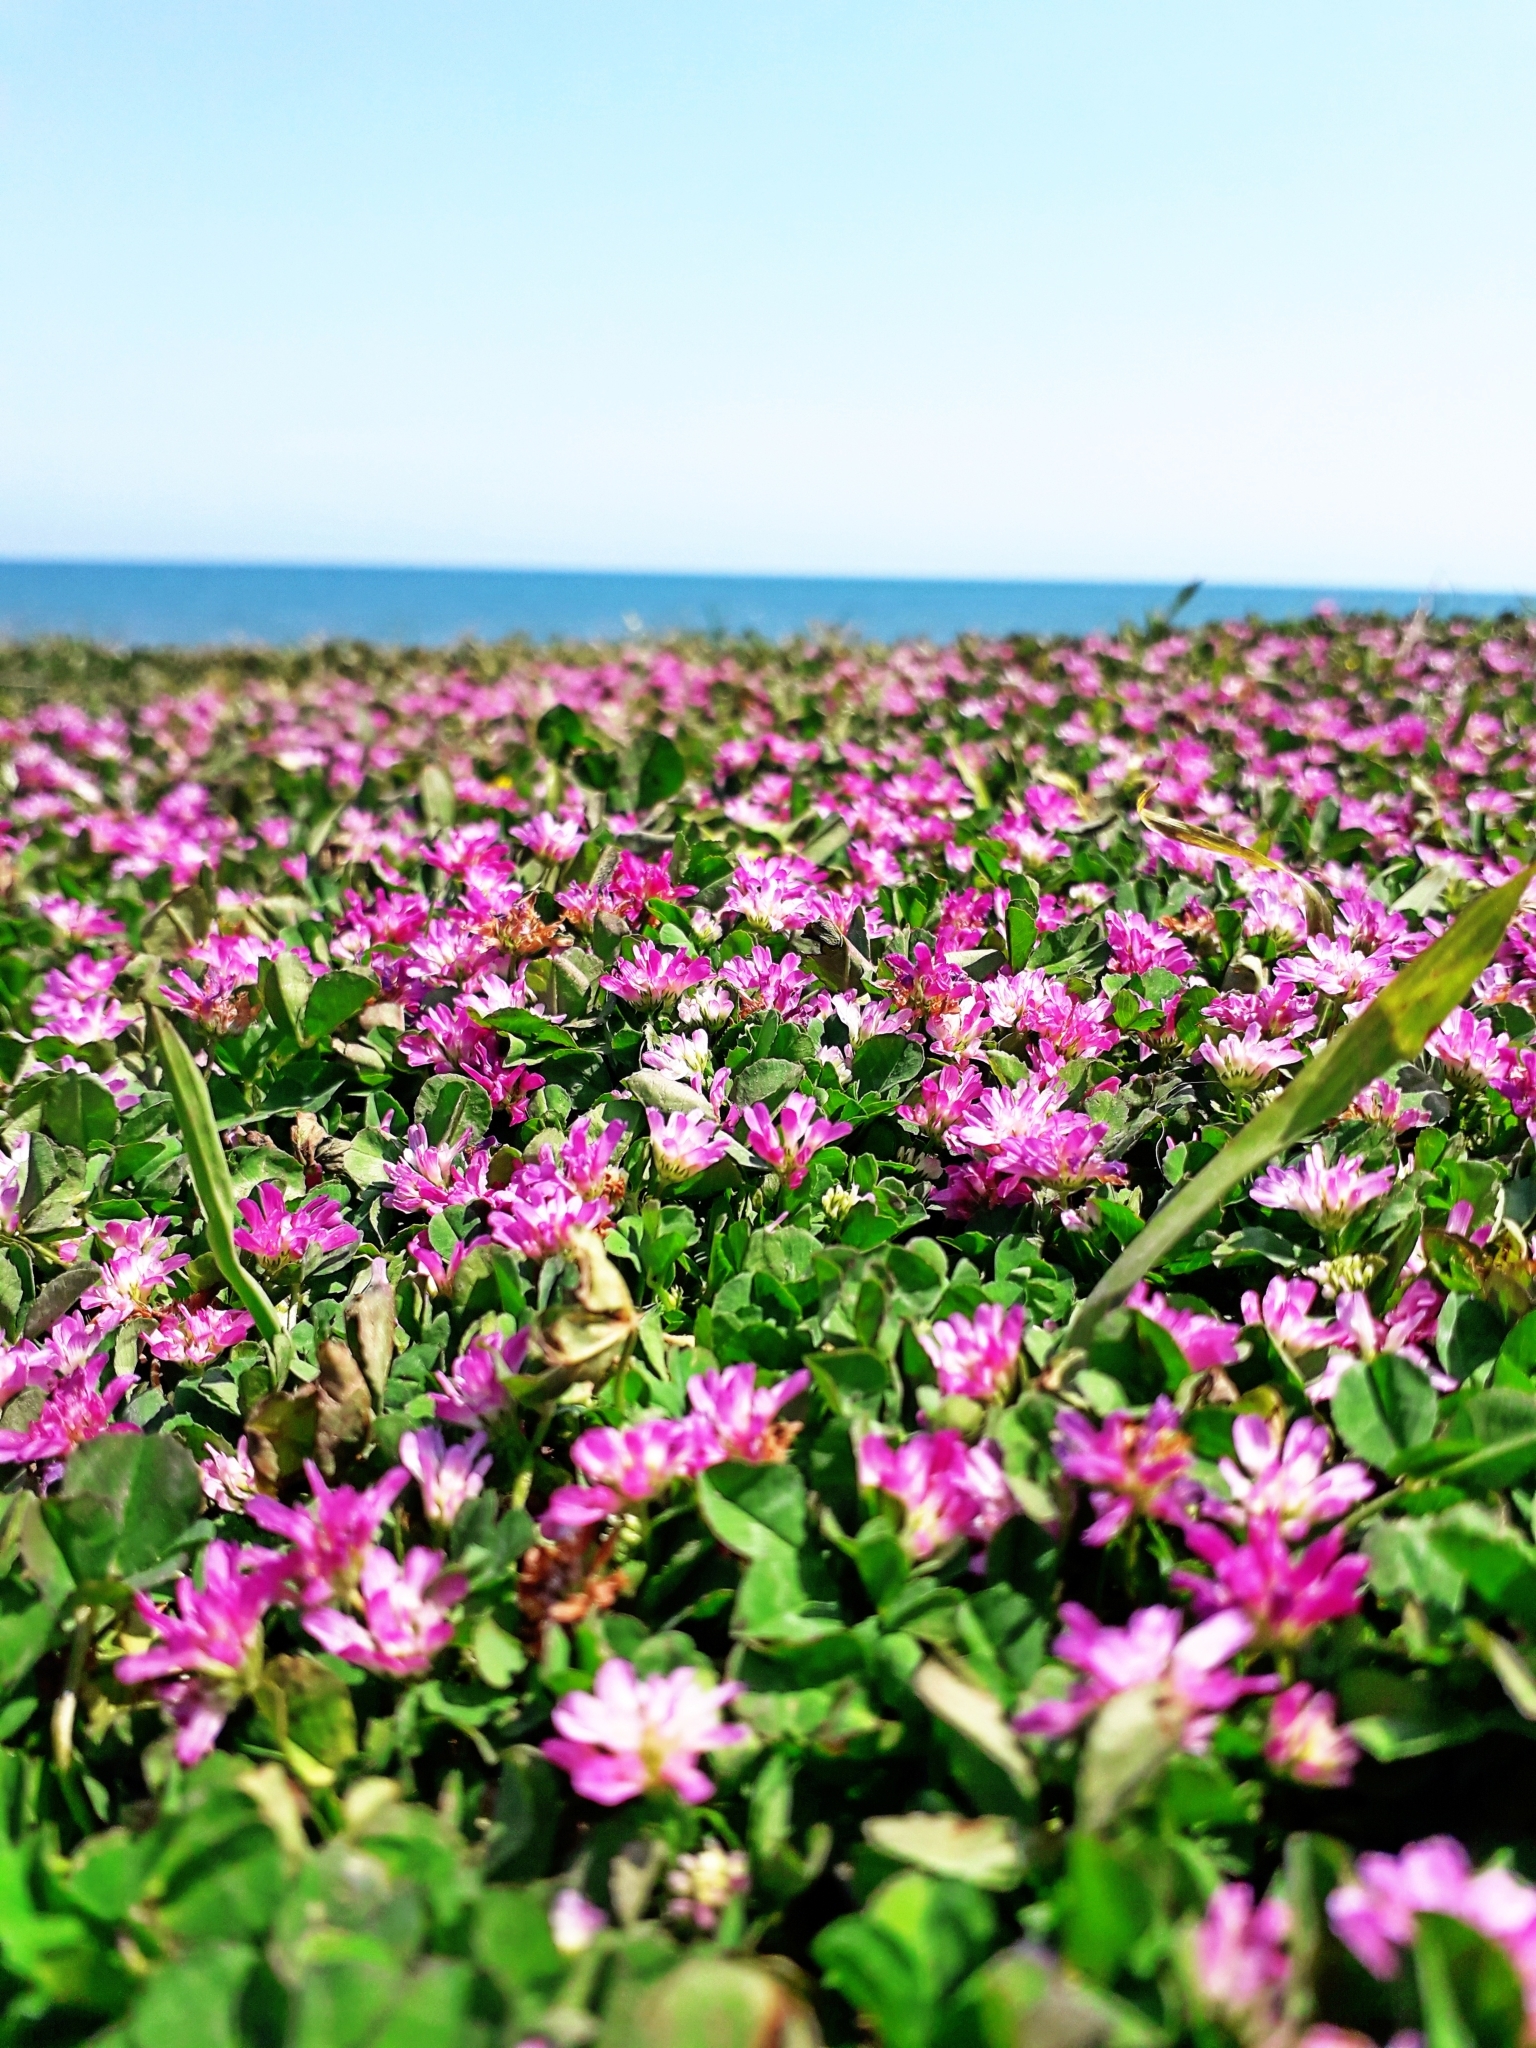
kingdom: Plantae
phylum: Tracheophyta
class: Magnoliopsida
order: Fabales
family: Fabaceae
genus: Trifolium
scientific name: Trifolium resupinatum
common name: Reversed clover
